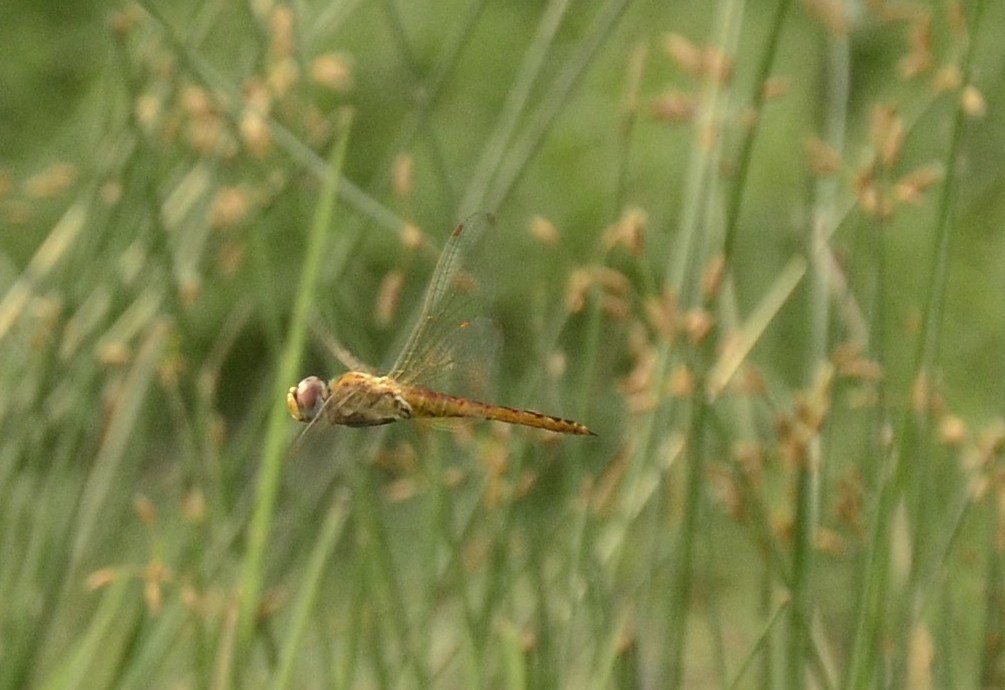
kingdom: Animalia
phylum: Arthropoda
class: Insecta
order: Odonata
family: Libellulidae
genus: Pantala
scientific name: Pantala flavescens
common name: Wandering glider
